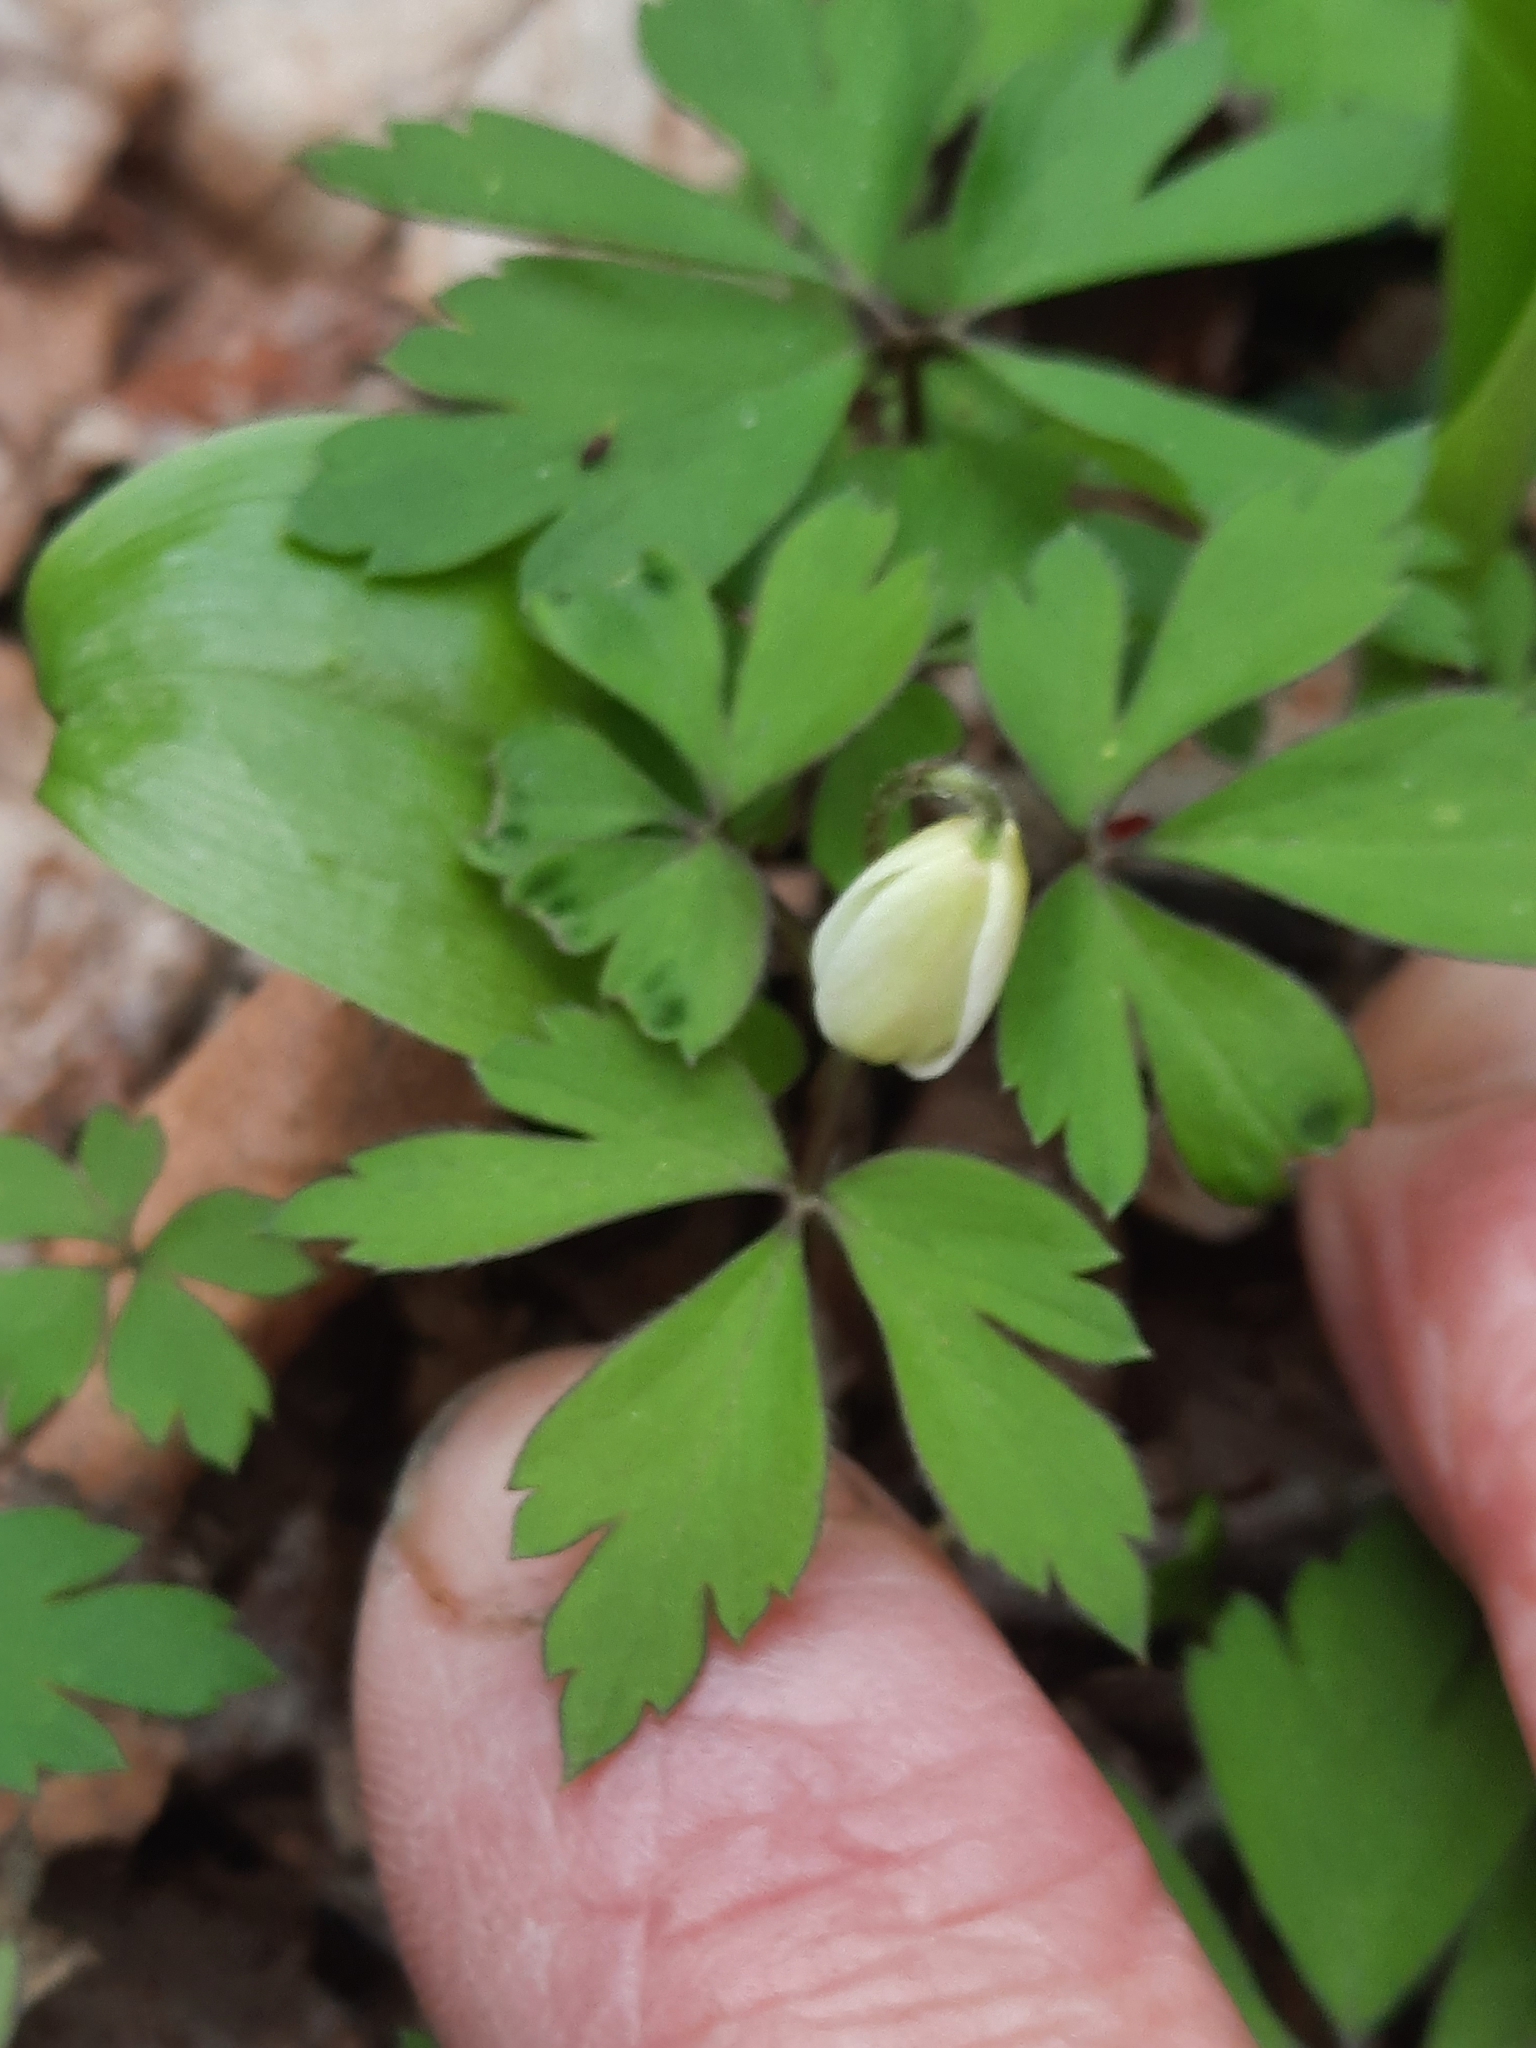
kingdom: Plantae
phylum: Tracheophyta
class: Magnoliopsida
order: Ranunculales
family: Ranunculaceae
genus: Anemone
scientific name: Anemone quinquefolia
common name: Wood anemone
